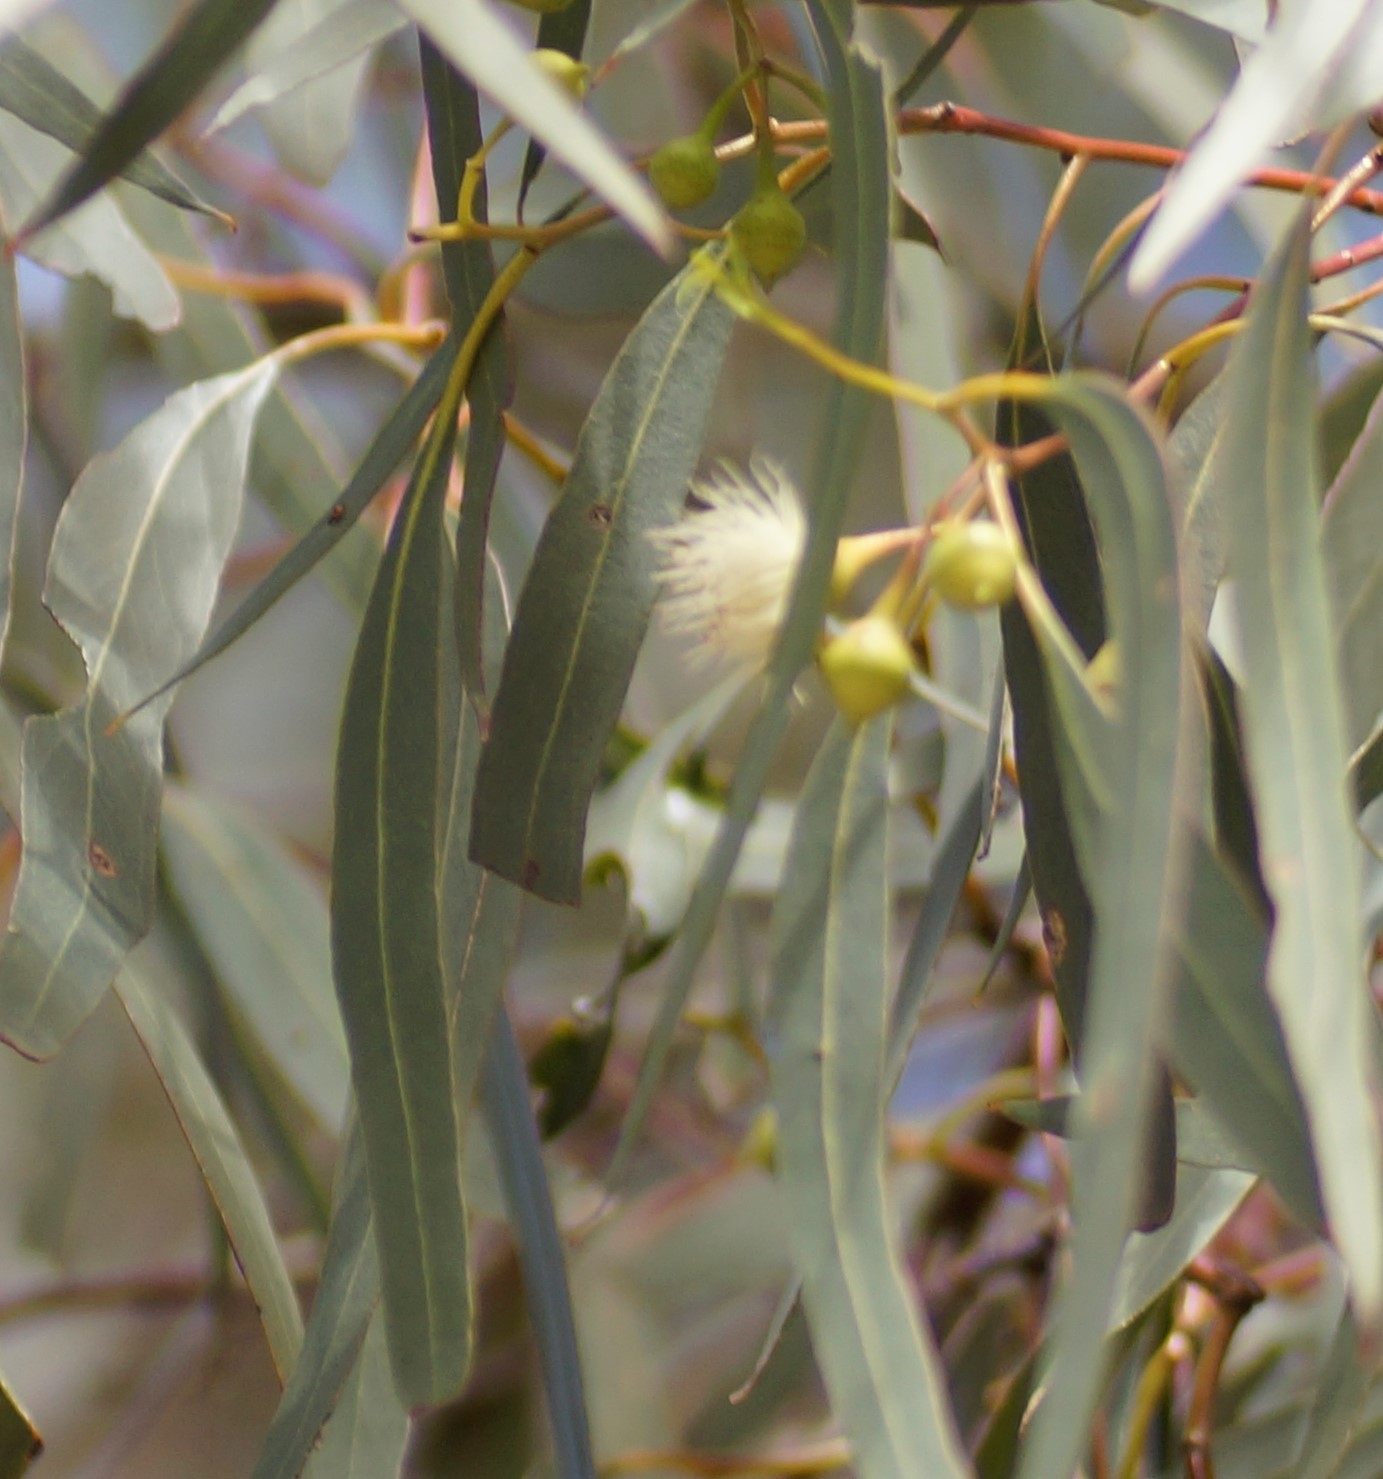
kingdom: Plantae
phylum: Tracheophyta
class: Magnoliopsida
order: Myrtales
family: Myrtaceae
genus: Eucalyptus
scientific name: Eucalyptus leucoxylon
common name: Blue gum
